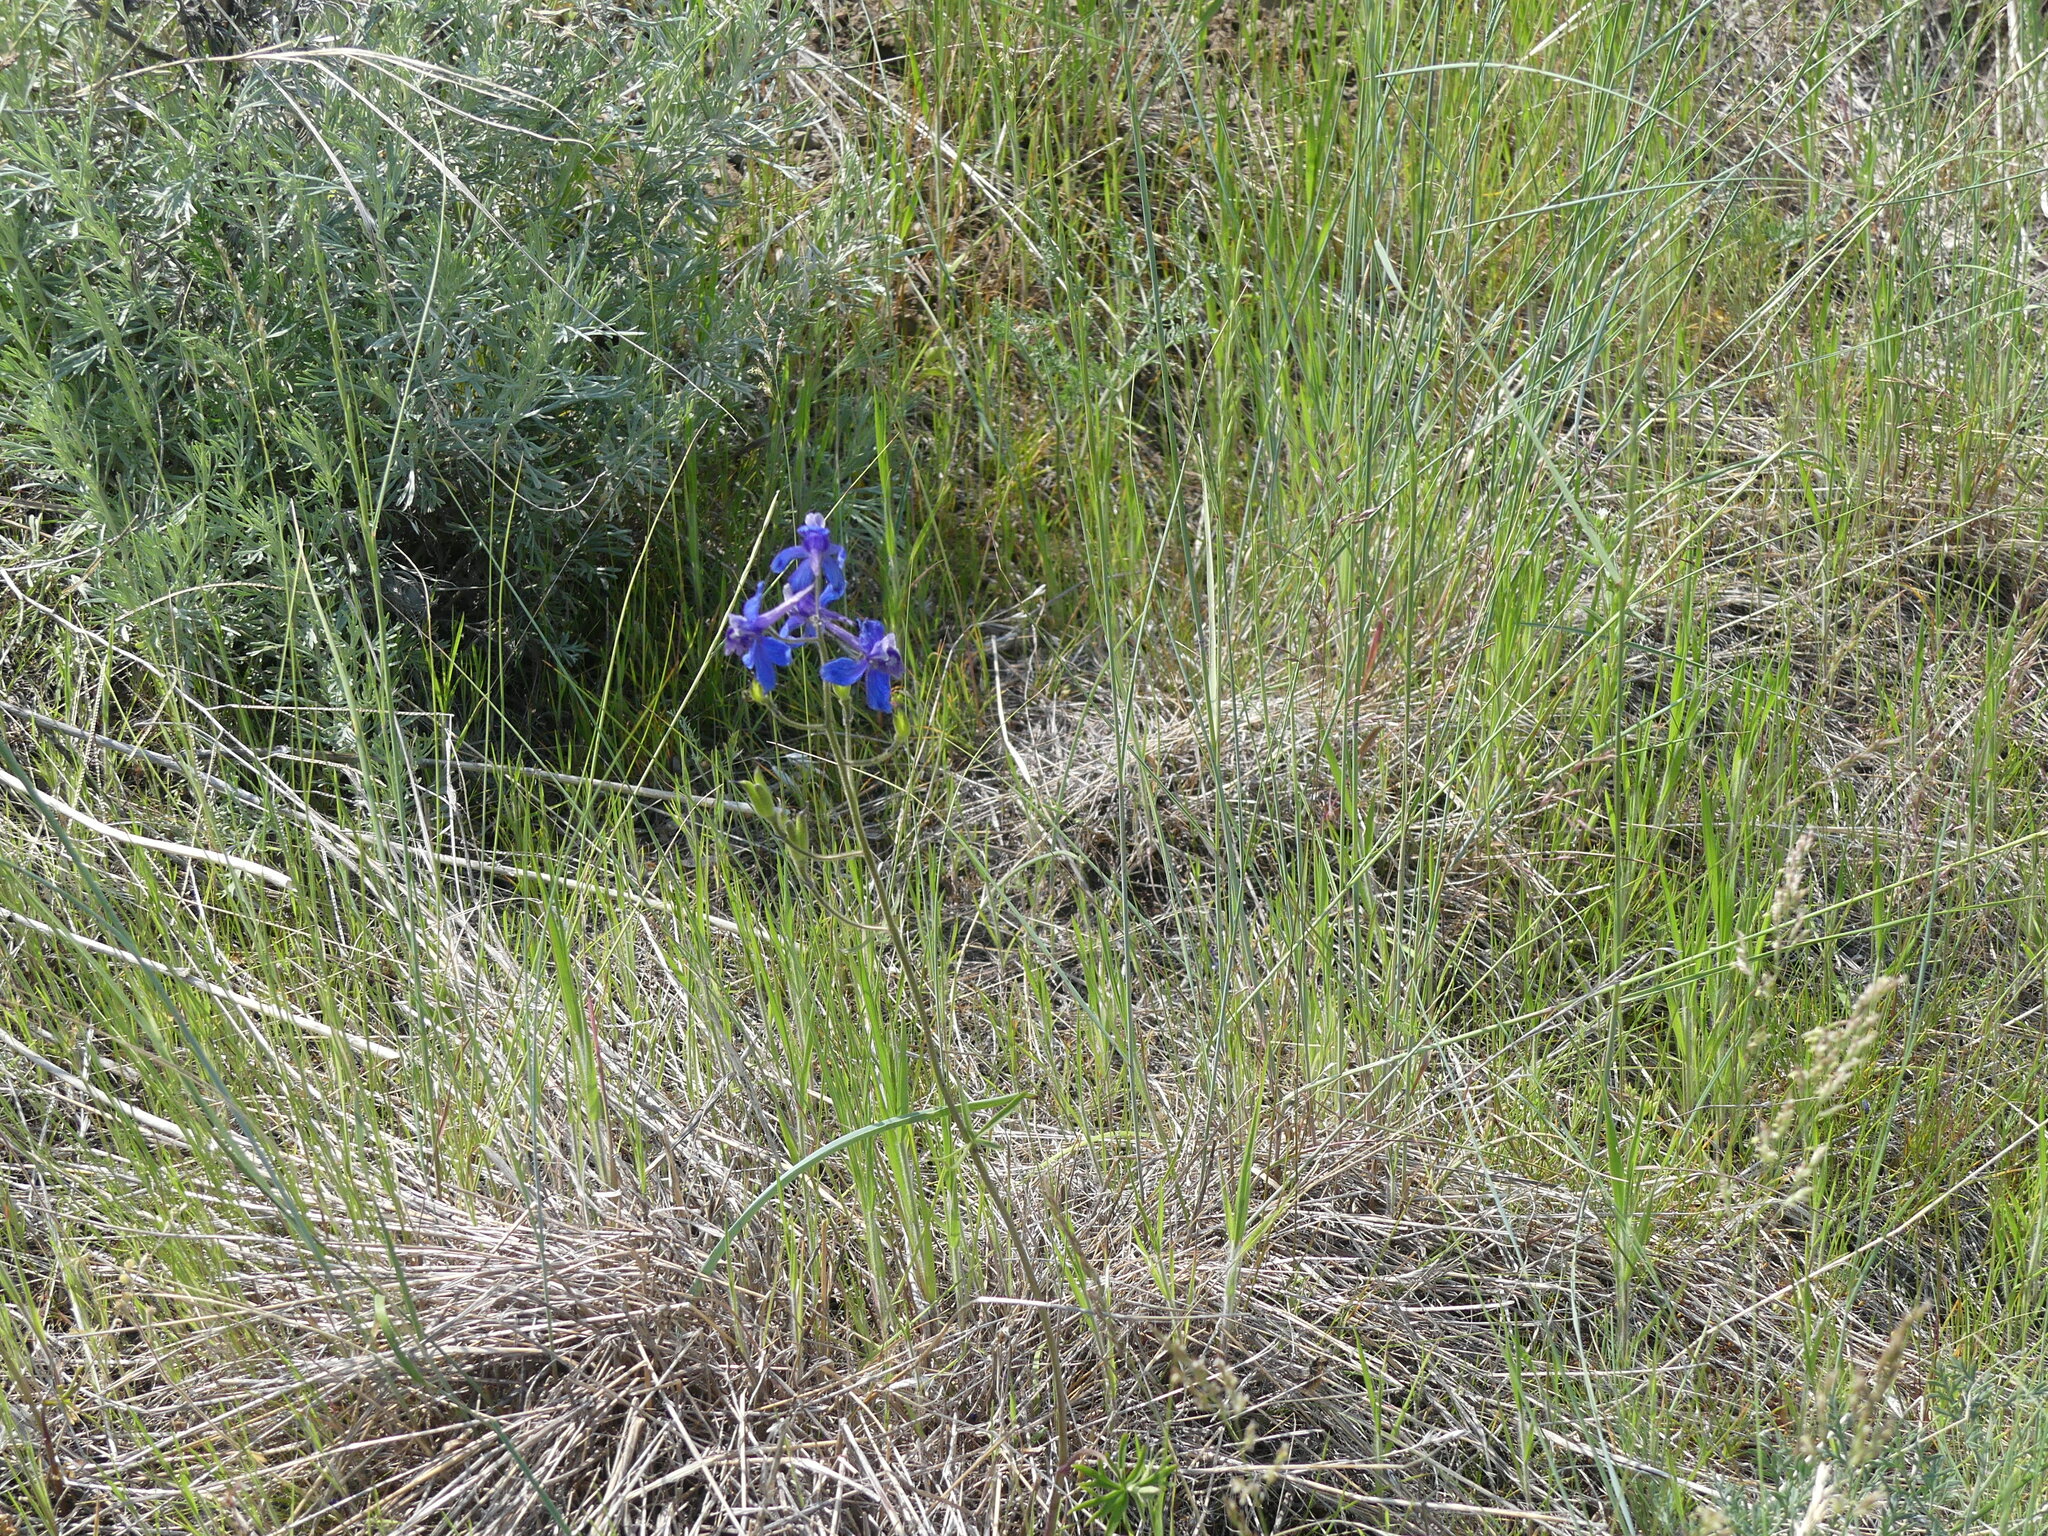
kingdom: Plantae
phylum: Tracheophyta
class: Magnoliopsida
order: Ranunculales
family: Ranunculaceae
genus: Delphinium
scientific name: Delphinium nuttallianum
